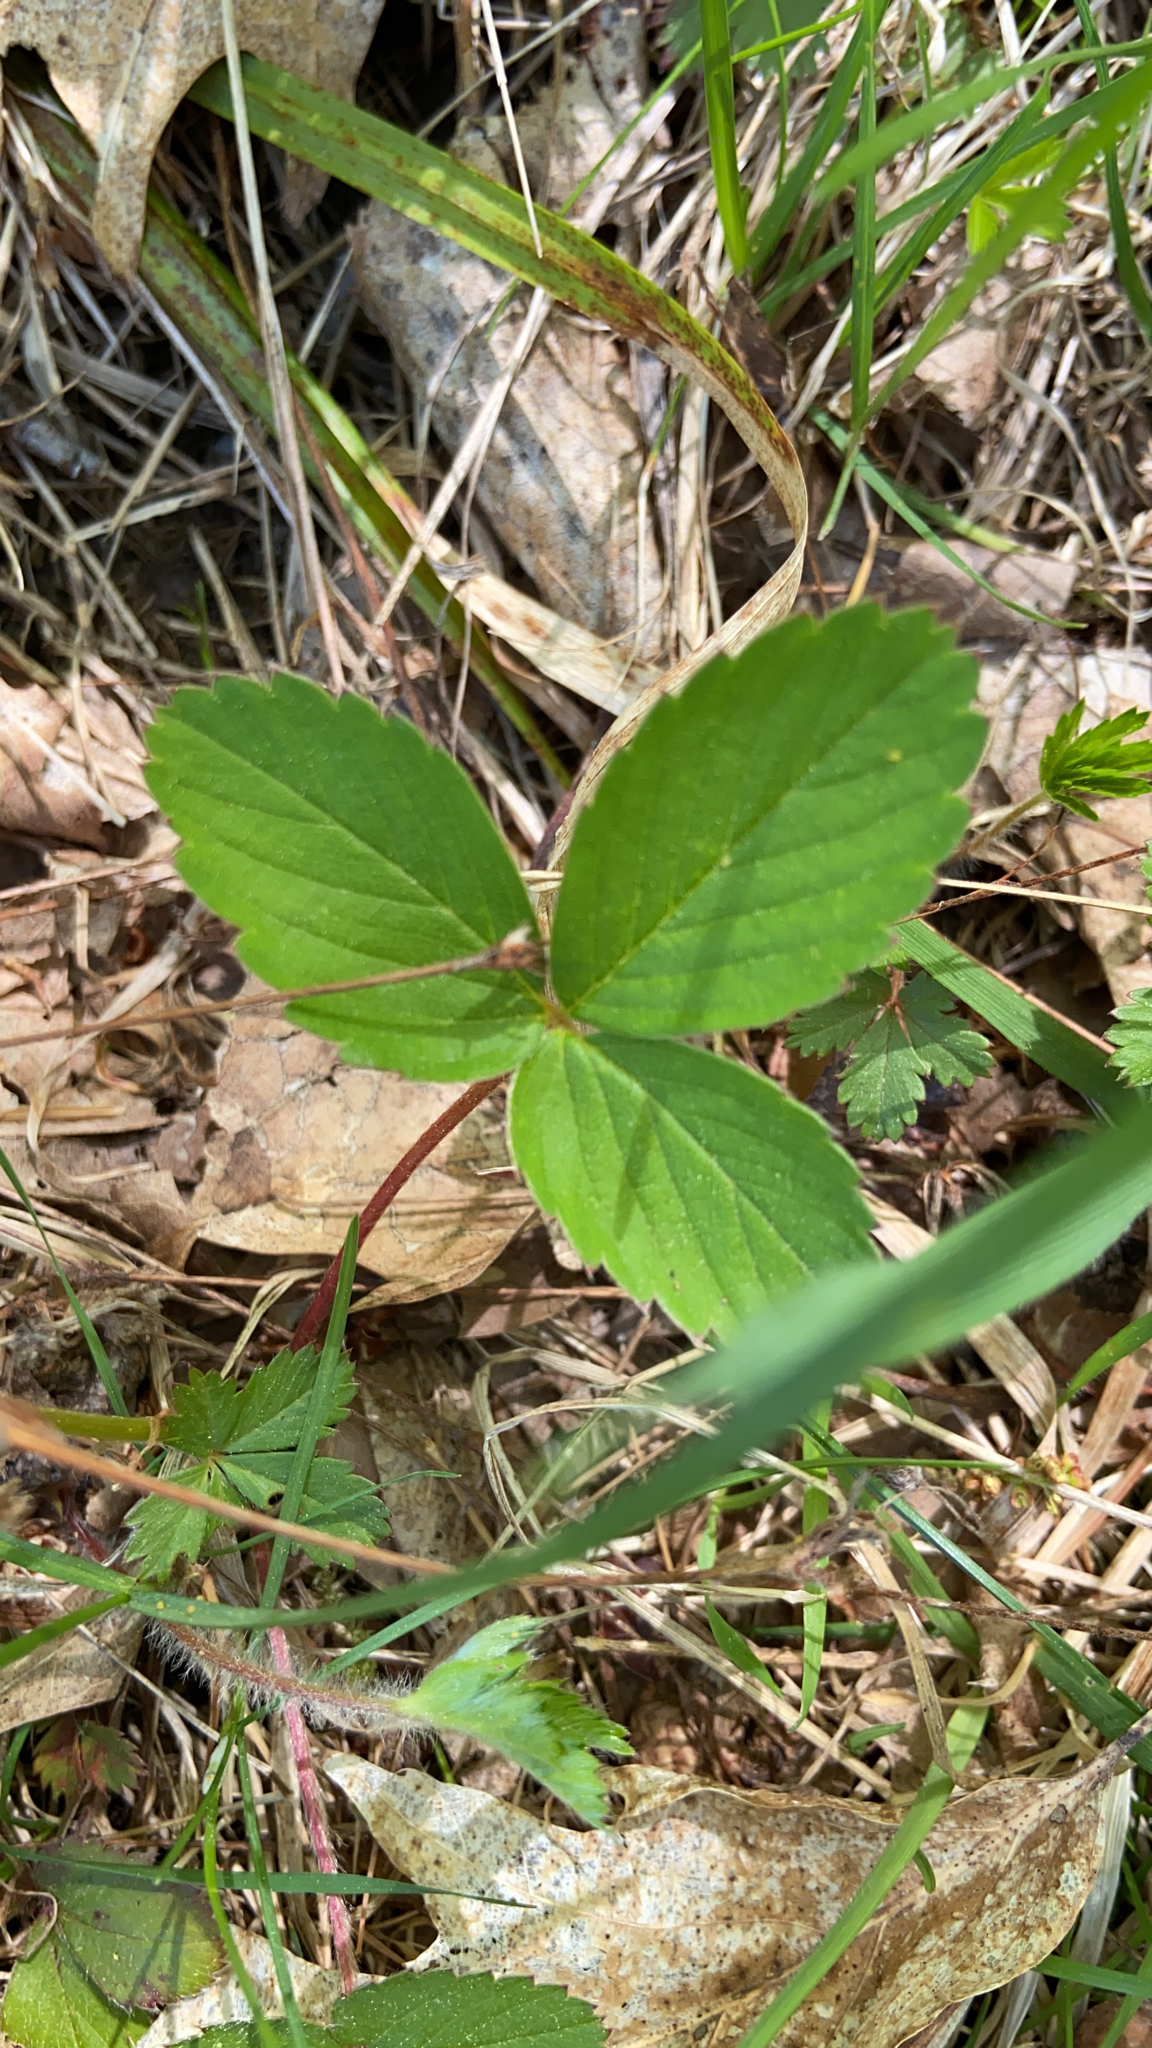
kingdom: Plantae
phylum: Tracheophyta
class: Magnoliopsida
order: Rosales
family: Rosaceae
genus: Fragaria
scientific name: Fragaria virginiana
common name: Thickleaved wild strawberry
